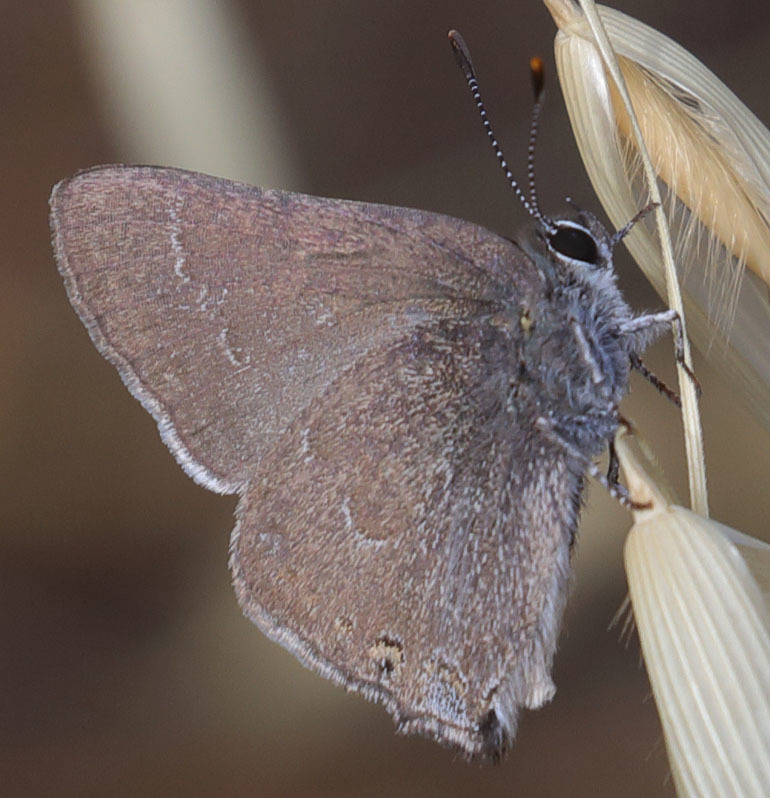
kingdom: Animalia
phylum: Arthropoda
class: Insecta
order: Lepidoptera
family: Lycaenidae
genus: Thecla
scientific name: Thecla tetra
